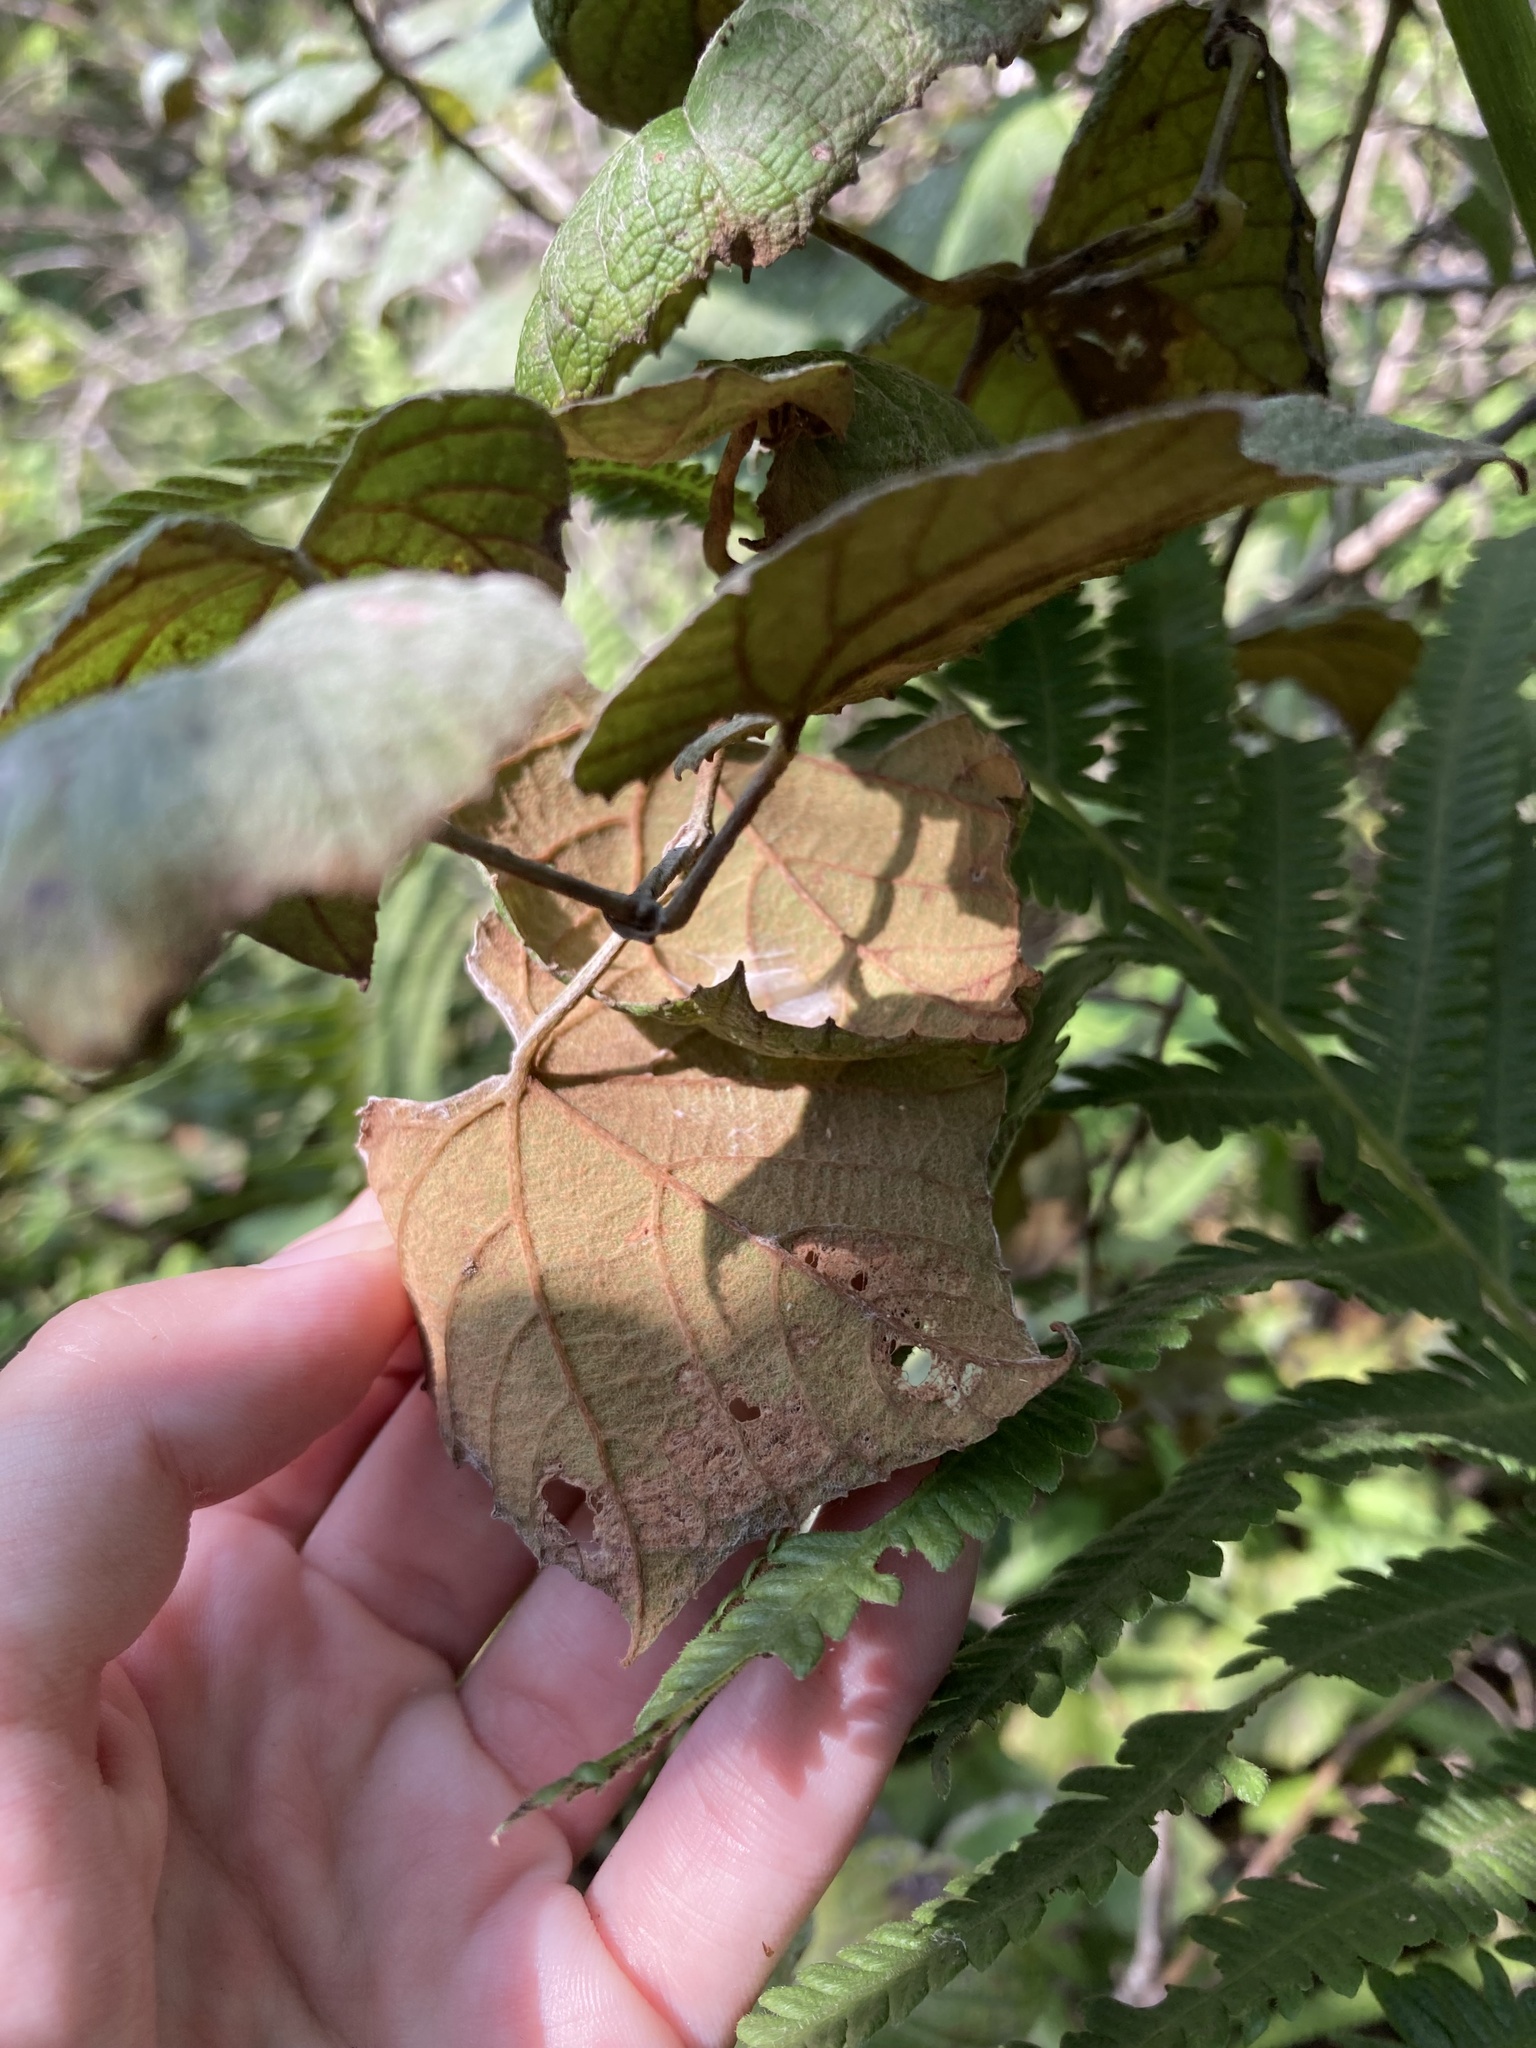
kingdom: Plantae
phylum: Tracheophyta
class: Magnoliopsida
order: Vitales
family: Vitaceae
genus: Vitis
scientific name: Vitis shuttleworthii
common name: Caloosa grape
